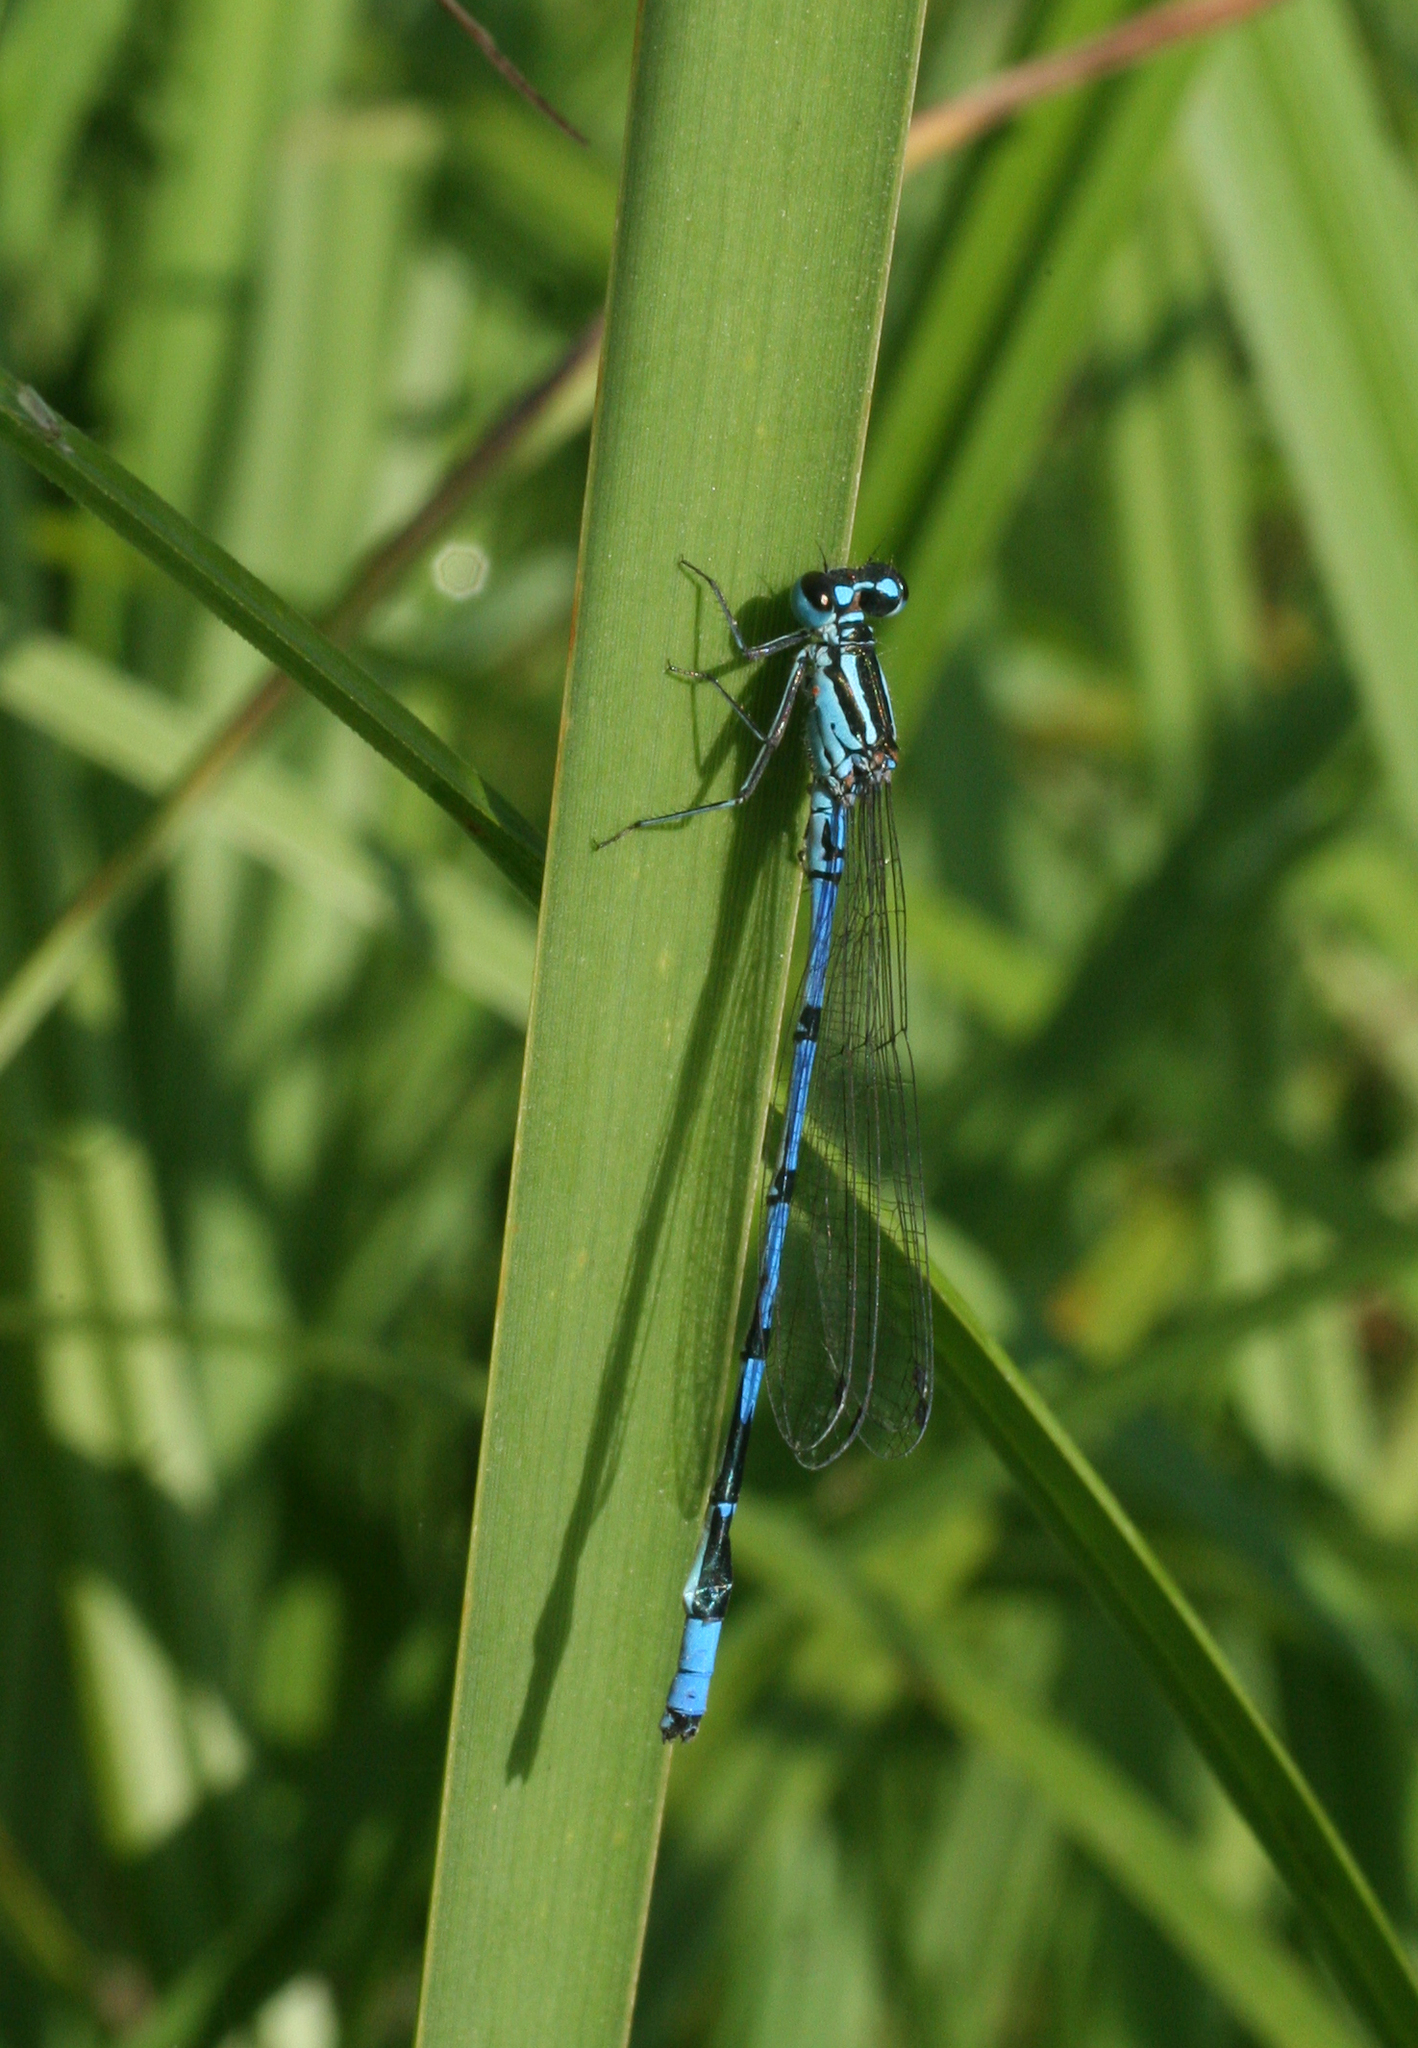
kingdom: Animalia
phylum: Arthropoda
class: Insecta
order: Odonata
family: Coenagrionidae
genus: Coenagrion
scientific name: Coenagrion australocaspicum
